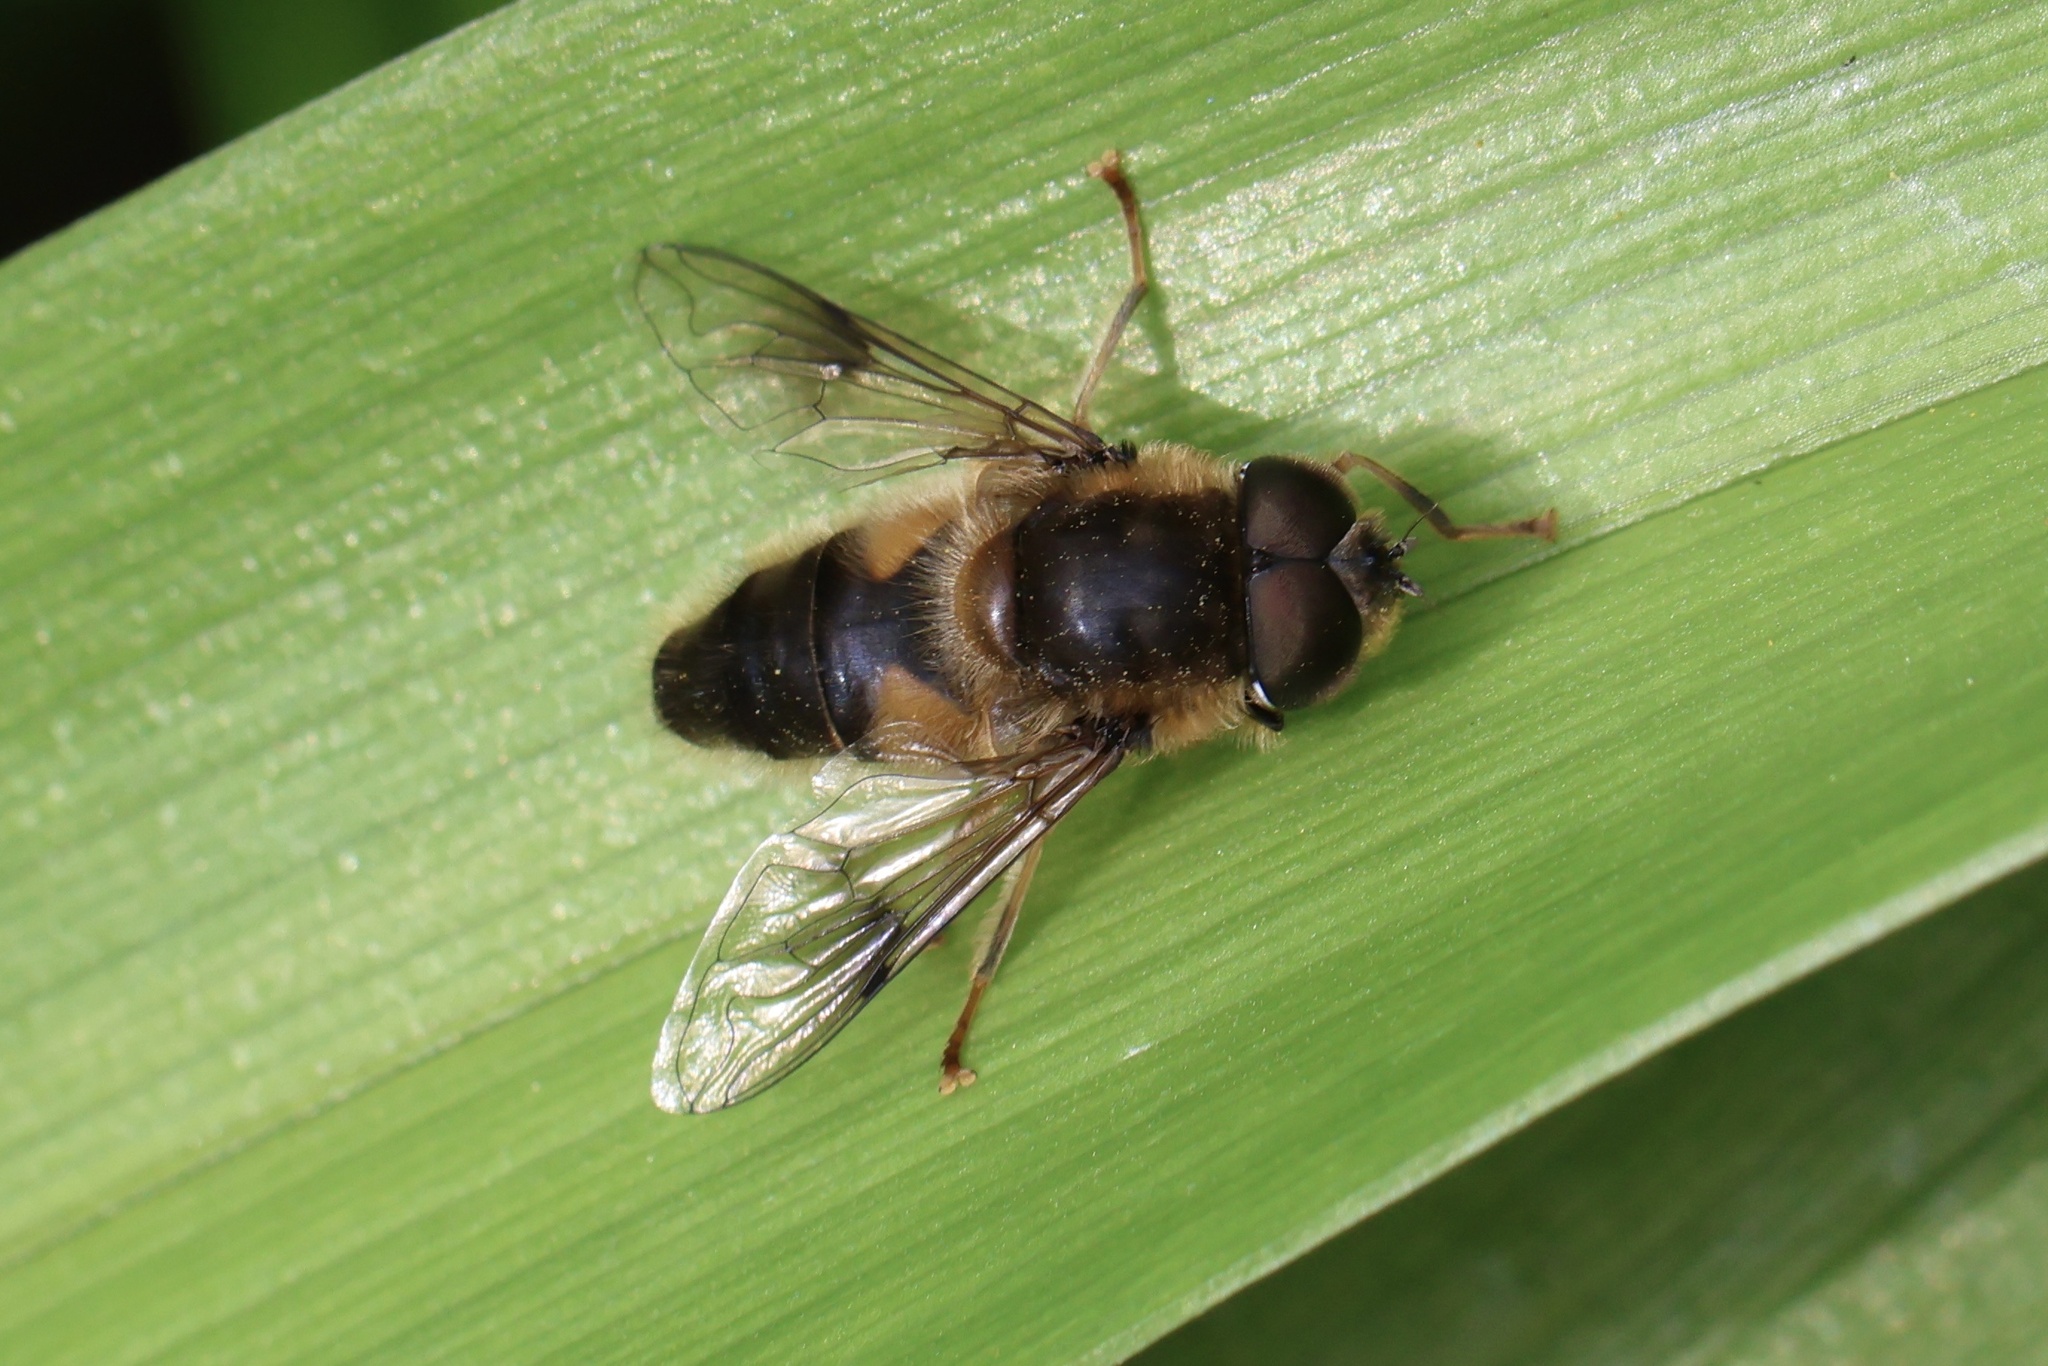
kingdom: Animalia
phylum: Arthropoda
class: Insecta
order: Diptera
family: Syrphidae
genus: Eristalis
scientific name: Eristalis pertinax
